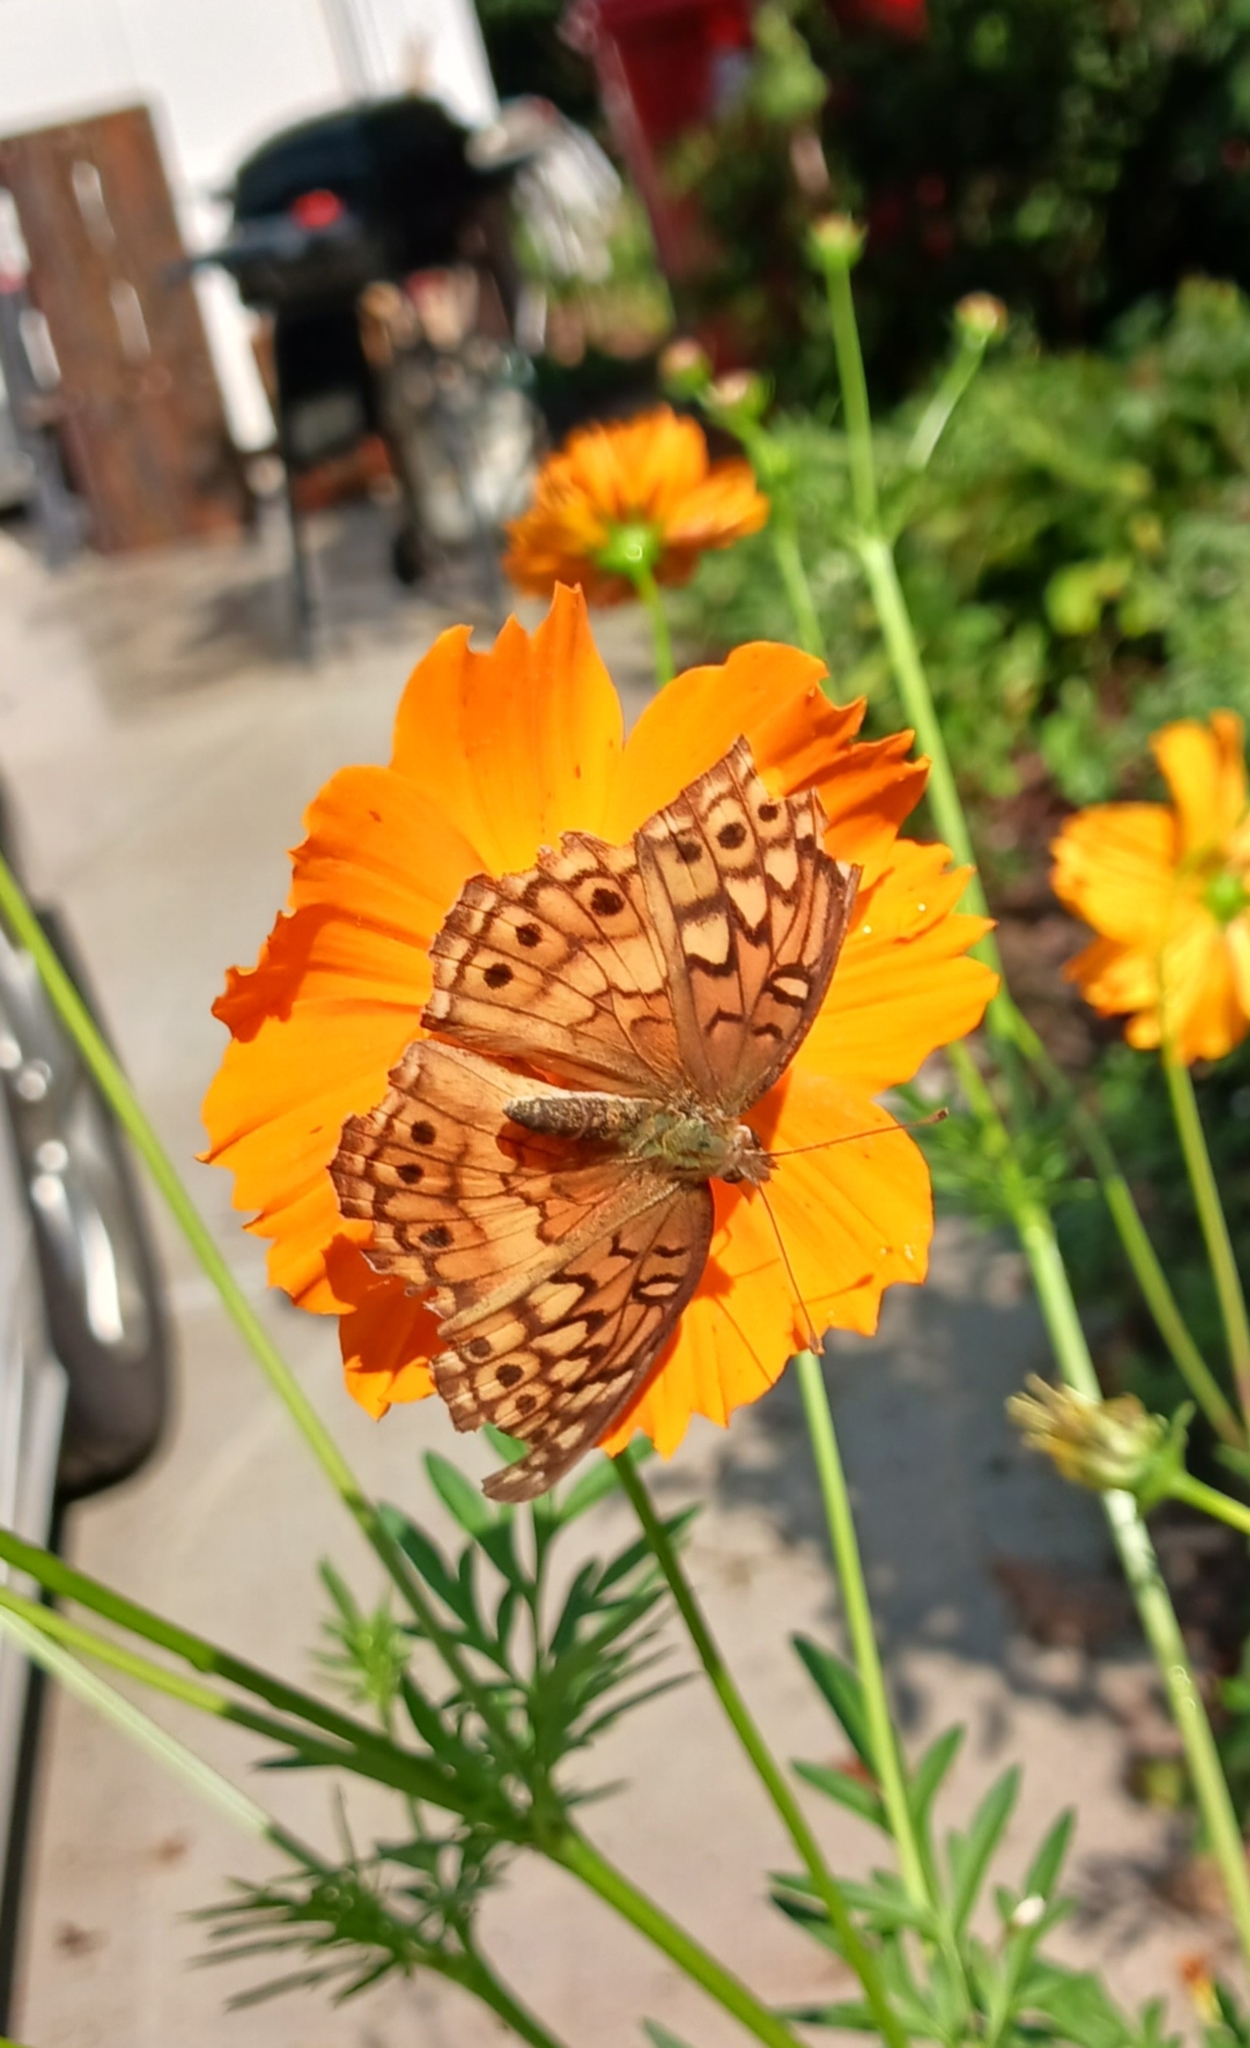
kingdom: Animalia
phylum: Arthropoda
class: Insecta
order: Lepidoptera
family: Nymphalidae
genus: Euptoieta
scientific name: Euptoieta claudia
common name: Variegated fritillary
